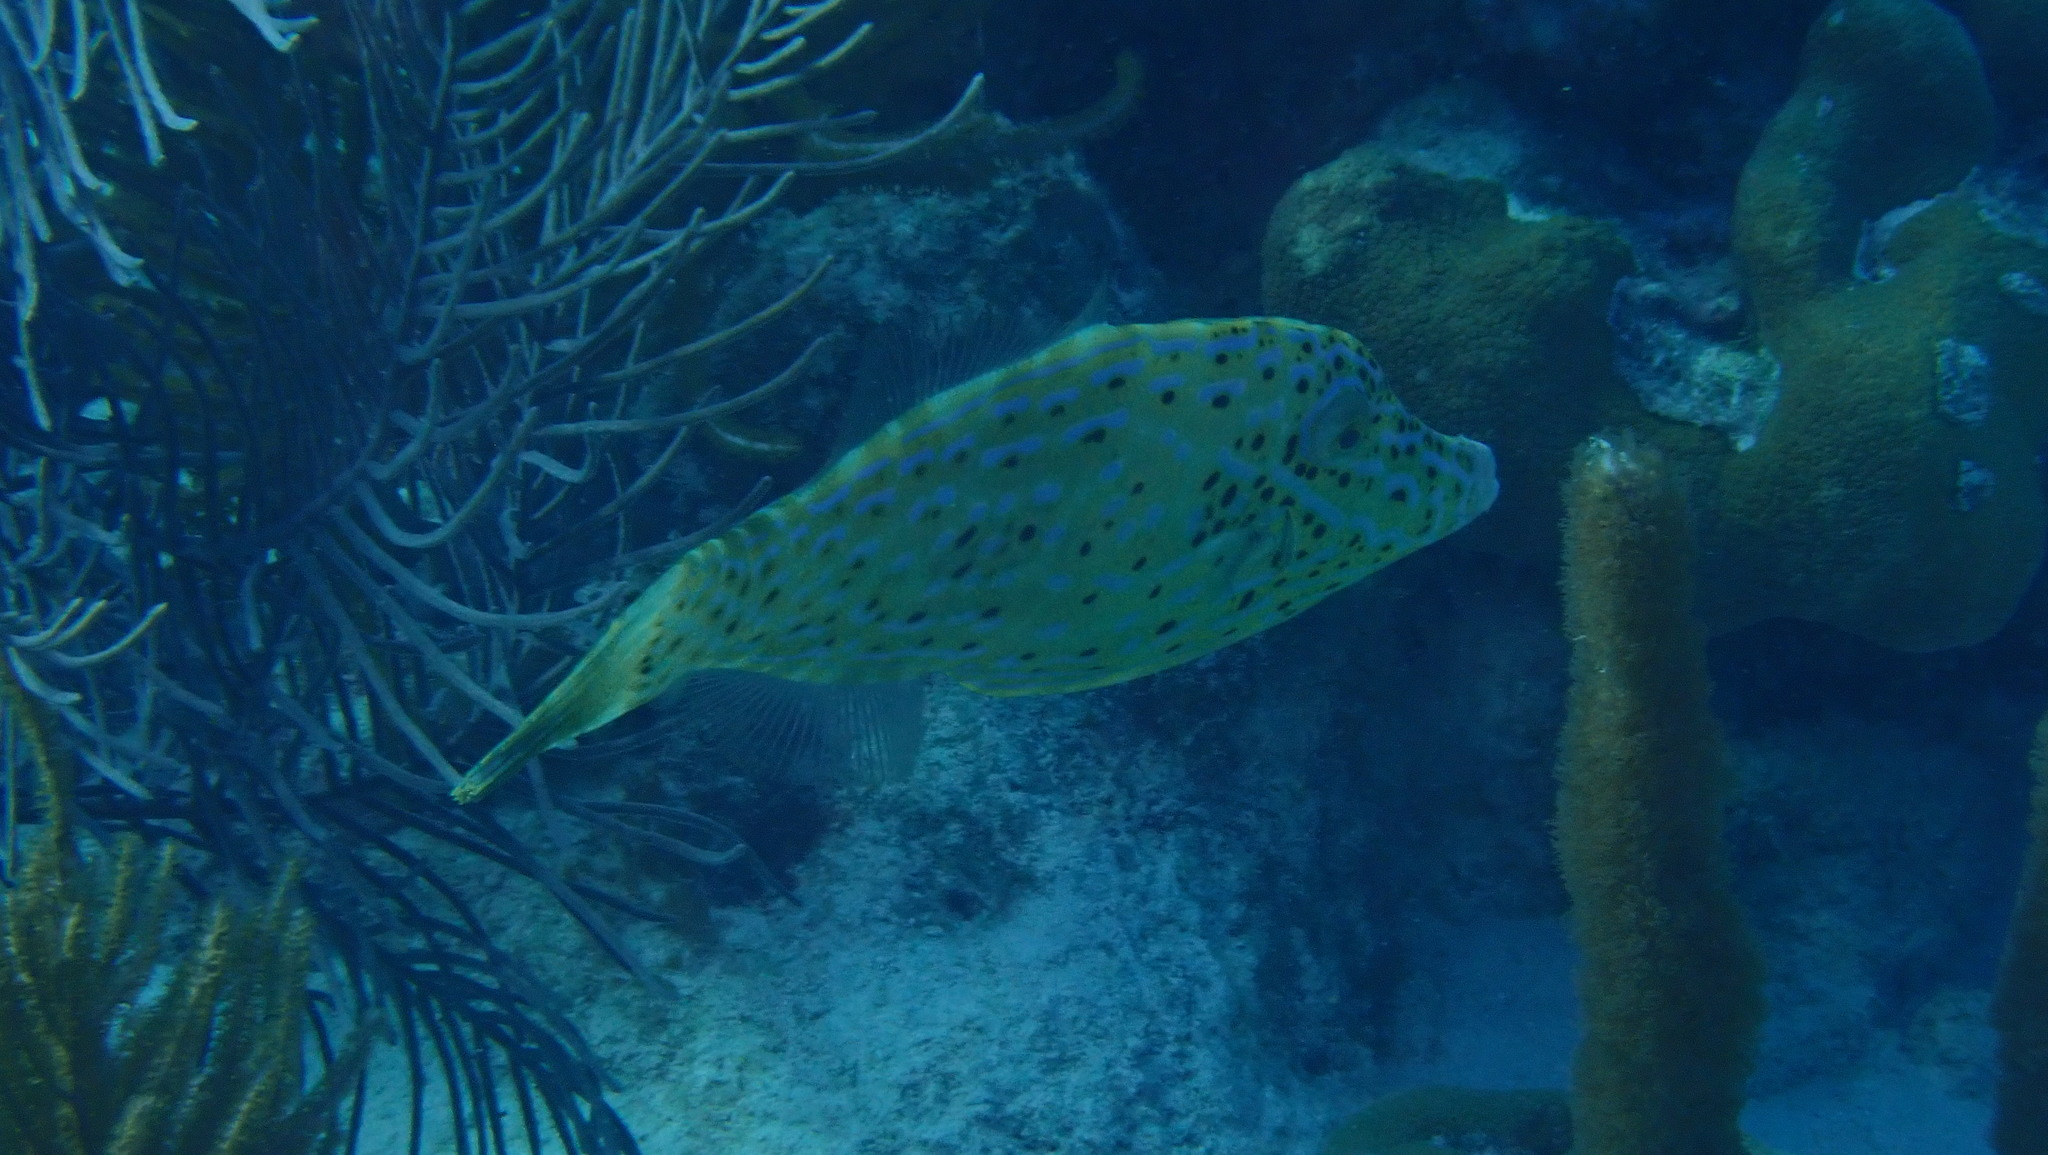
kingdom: Animalia
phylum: Chordata
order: Tetraodontiformes
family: Monacanthidae
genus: Aluterus
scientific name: Aluterus scriptus
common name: Scribbled leatherjacket filefish
